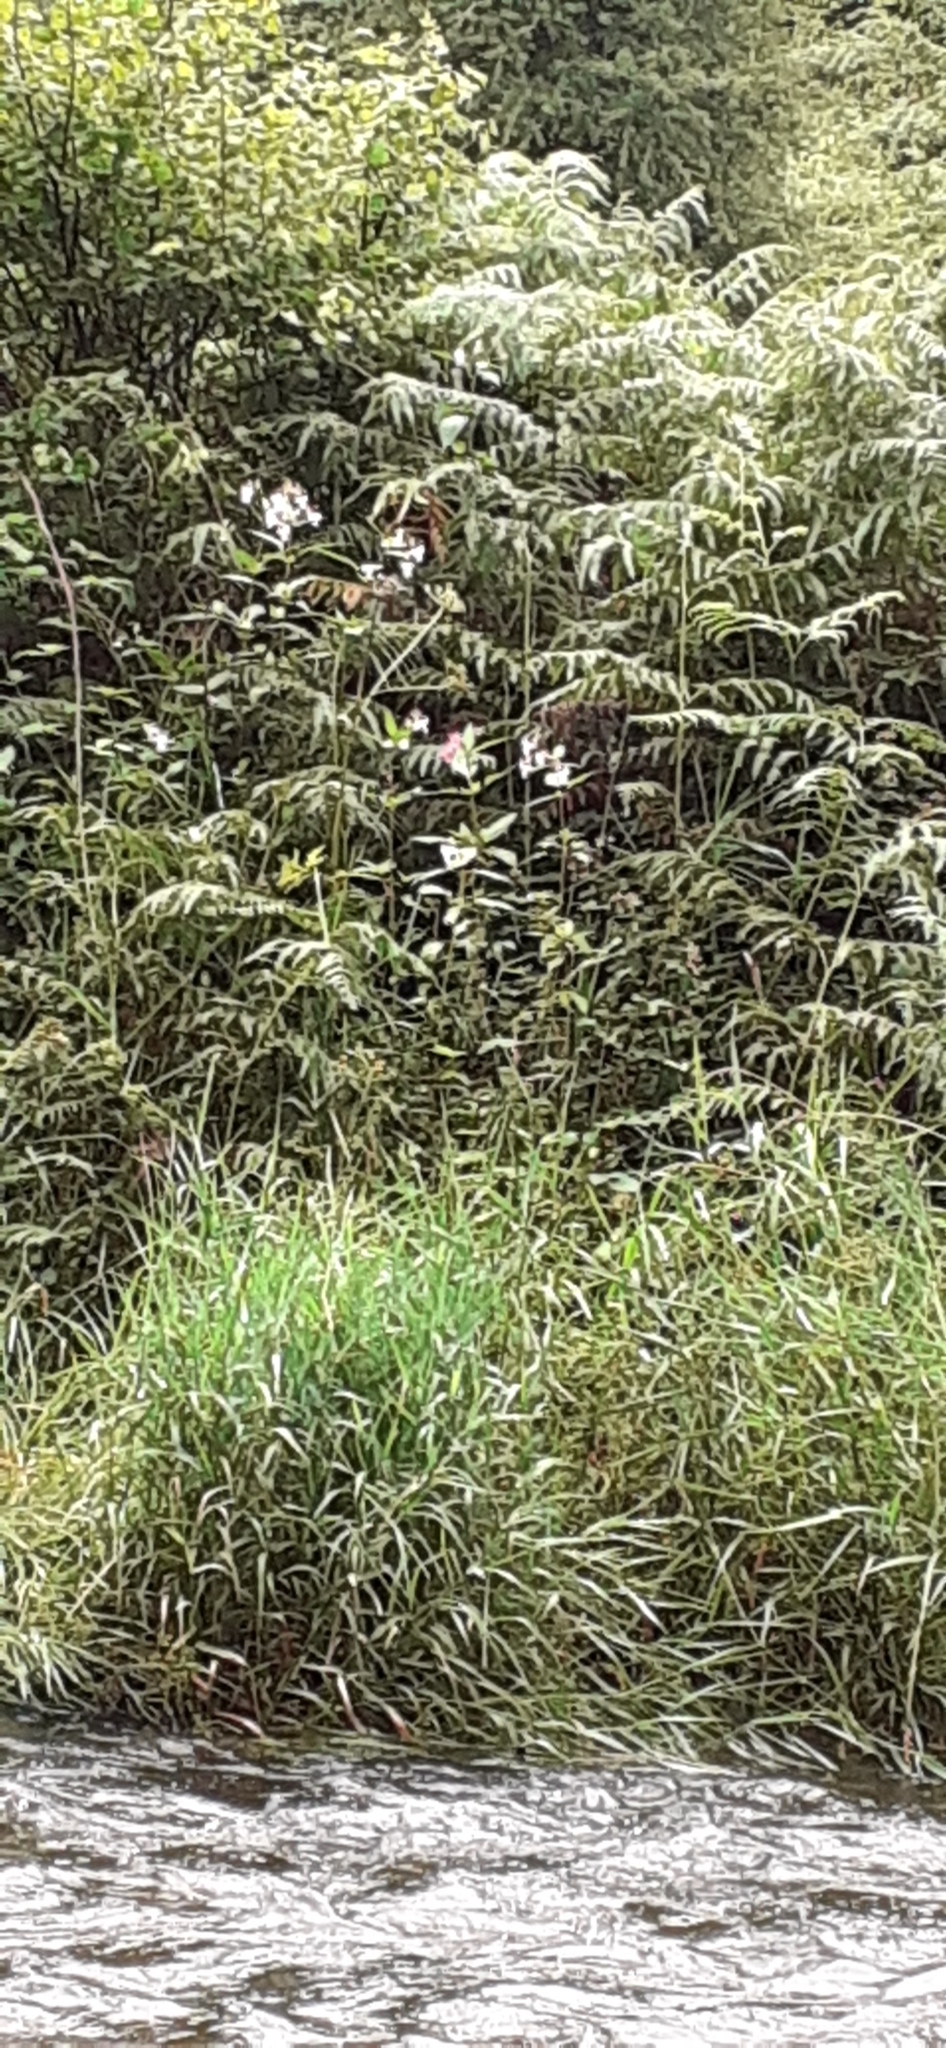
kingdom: Plantae
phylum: Tracheophyta
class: Magnoliopsida
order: Ericales
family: Balsaminaceae
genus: Impatiens
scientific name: Impatiens glandulifera
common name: Himalayan balsam
